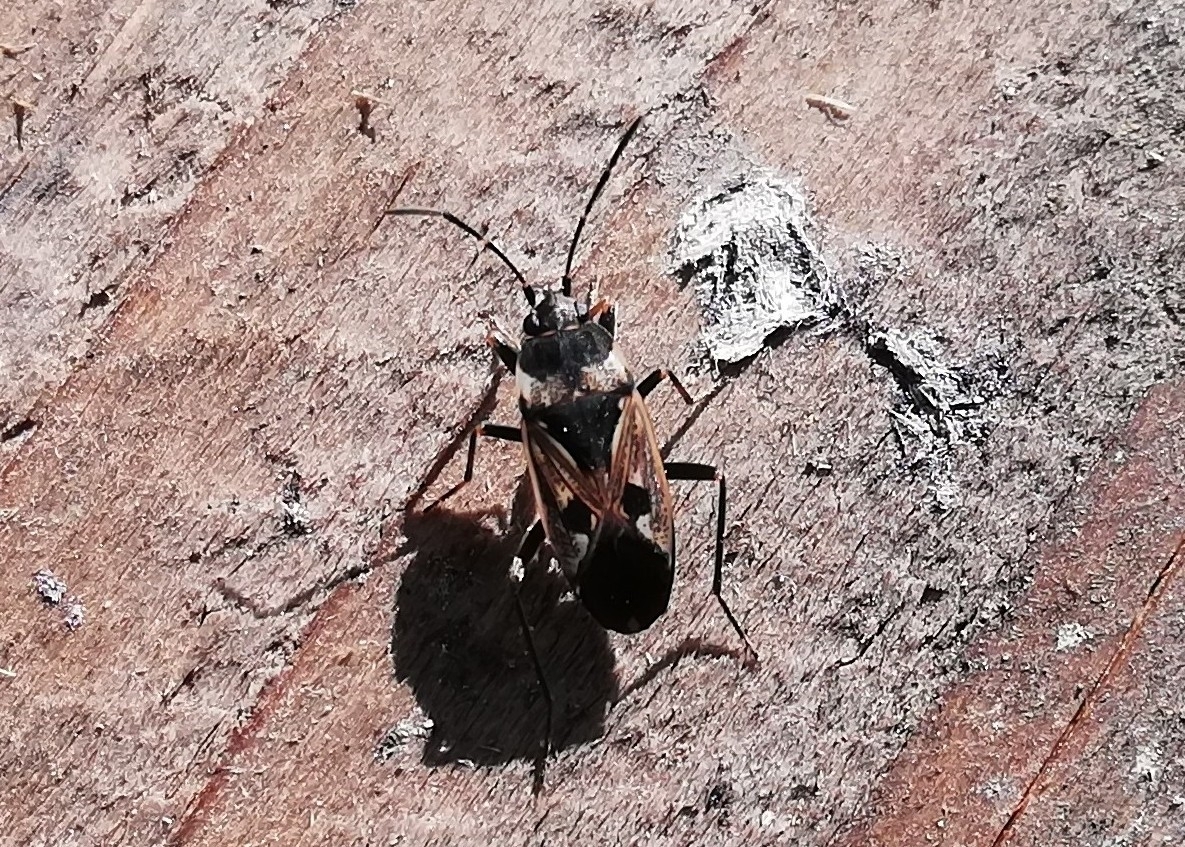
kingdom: Animalia
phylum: Arthropoda
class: Insecta
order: Hemiptera
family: Rhyparochromidae
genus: Rhyparochromus
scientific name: Rhyparochromus vulgaris
